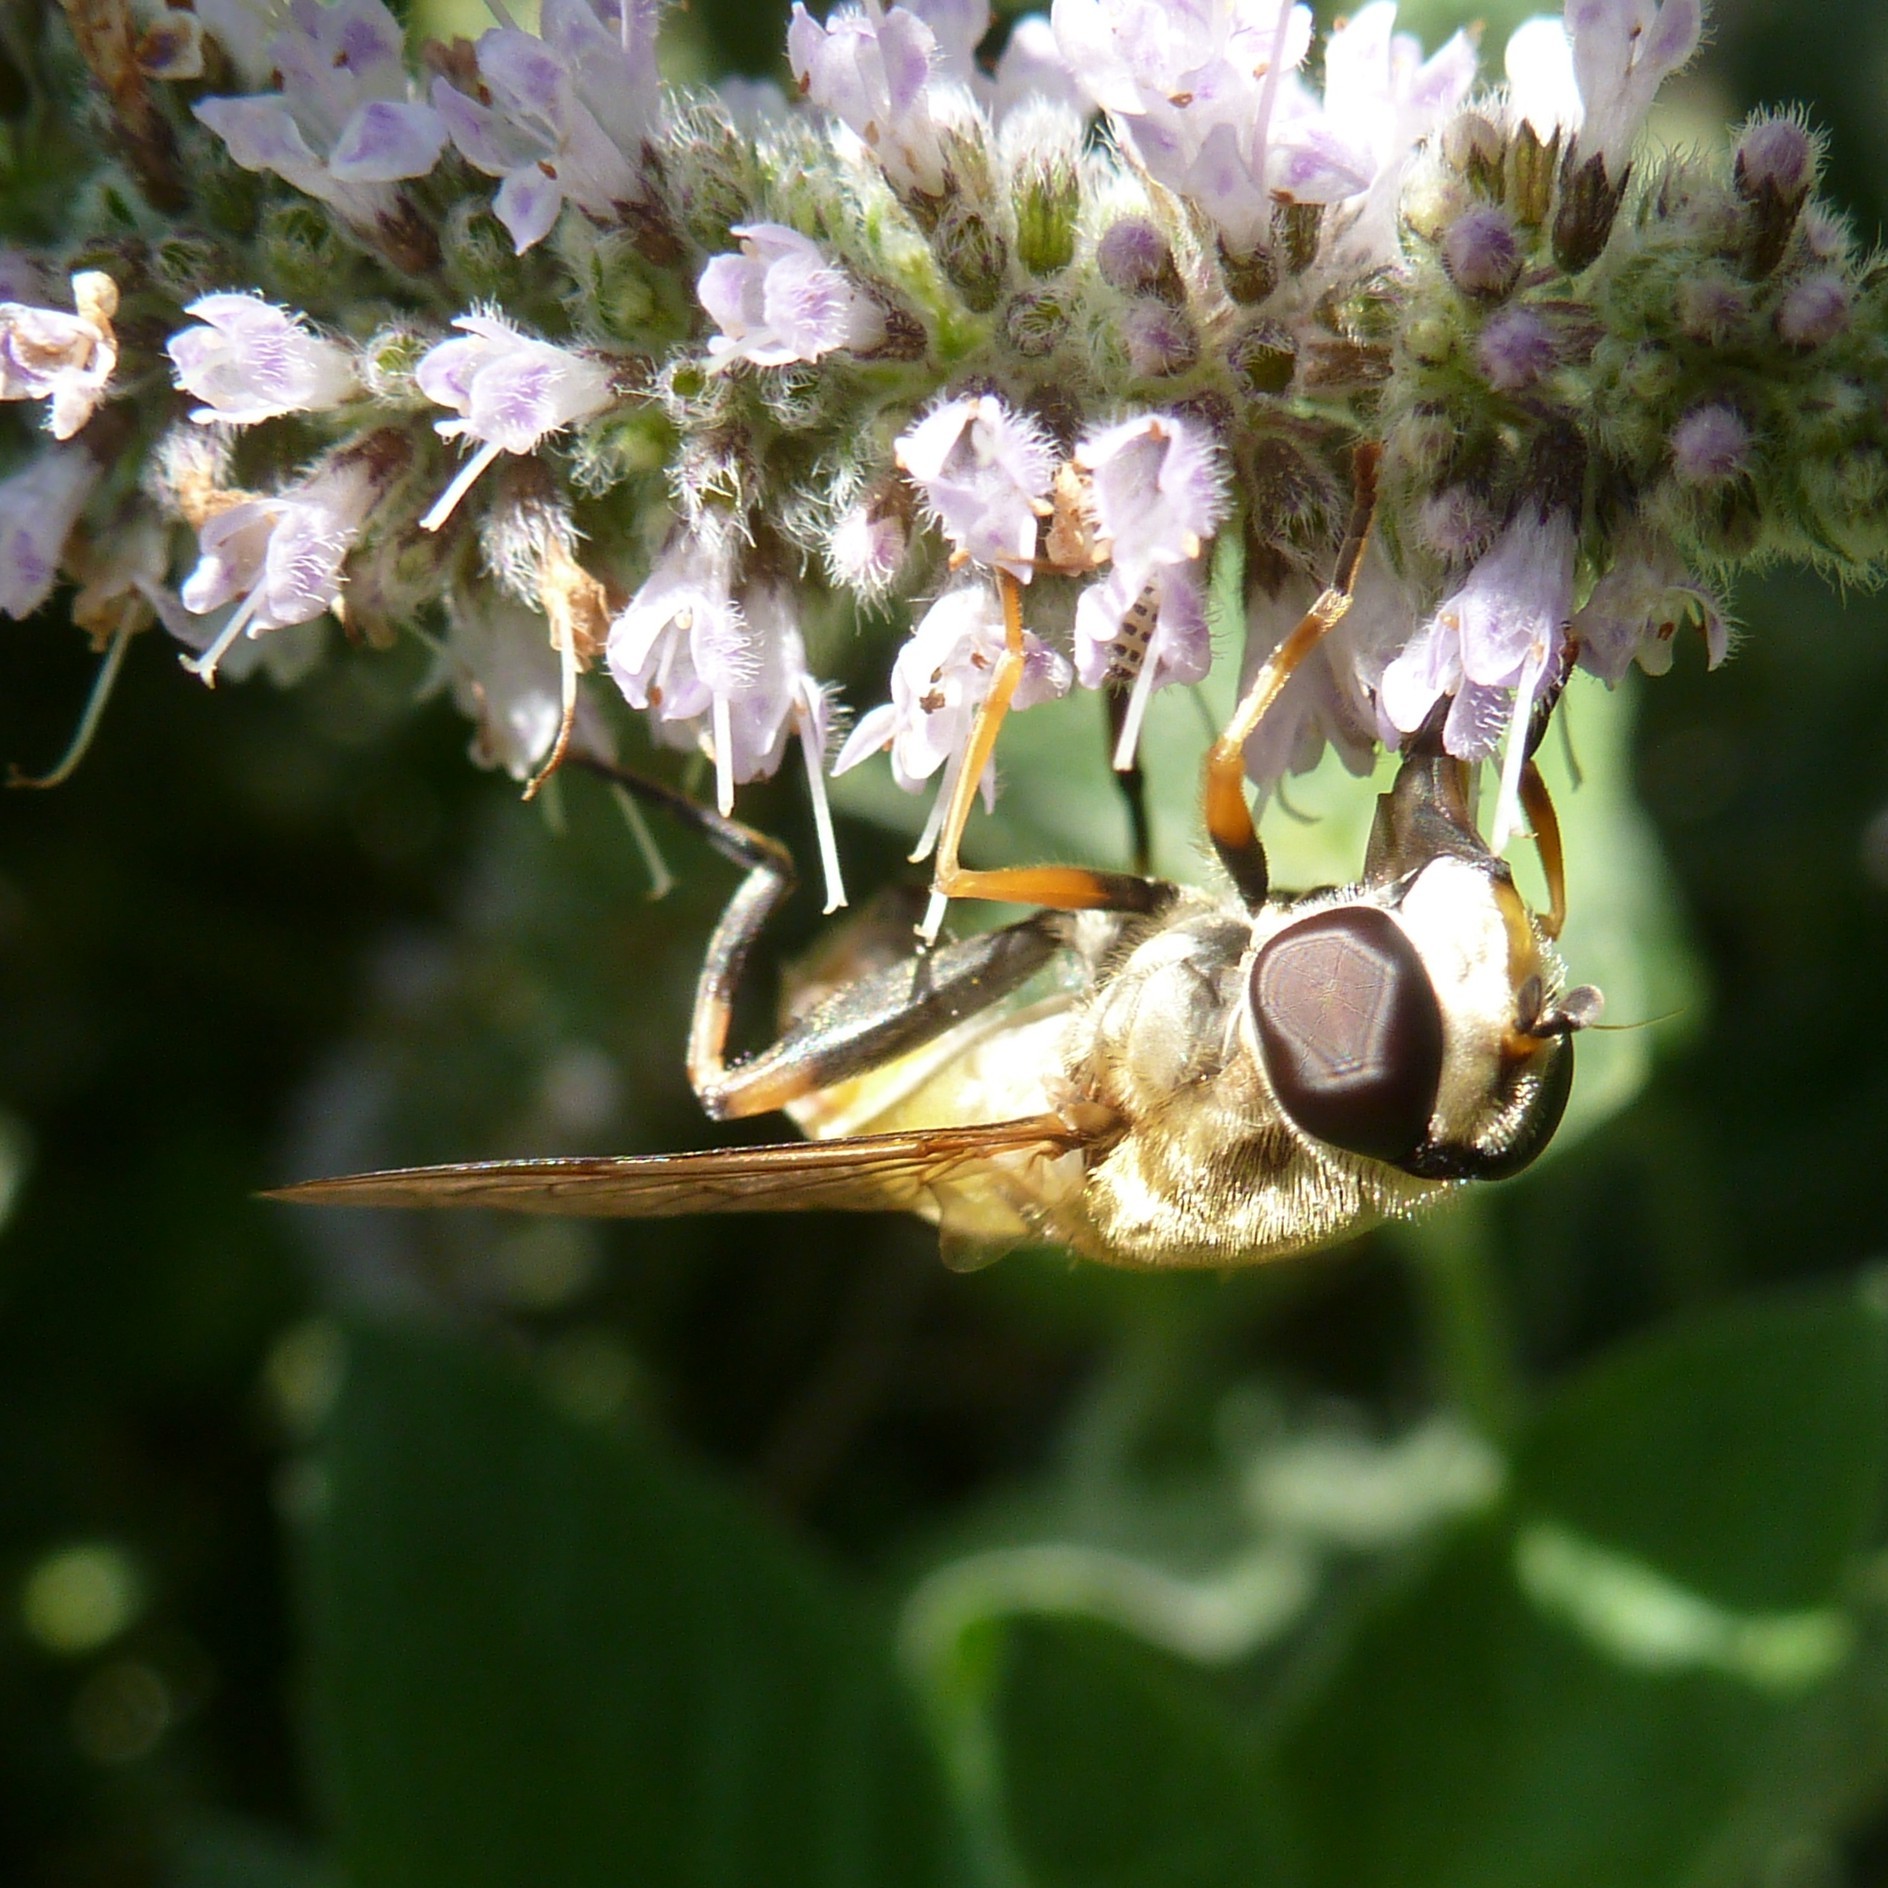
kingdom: Animalia
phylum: Arthropoda
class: Insecta
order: Diptera
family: Syrphidae
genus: Helophilus
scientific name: Helophilus trivittatus
